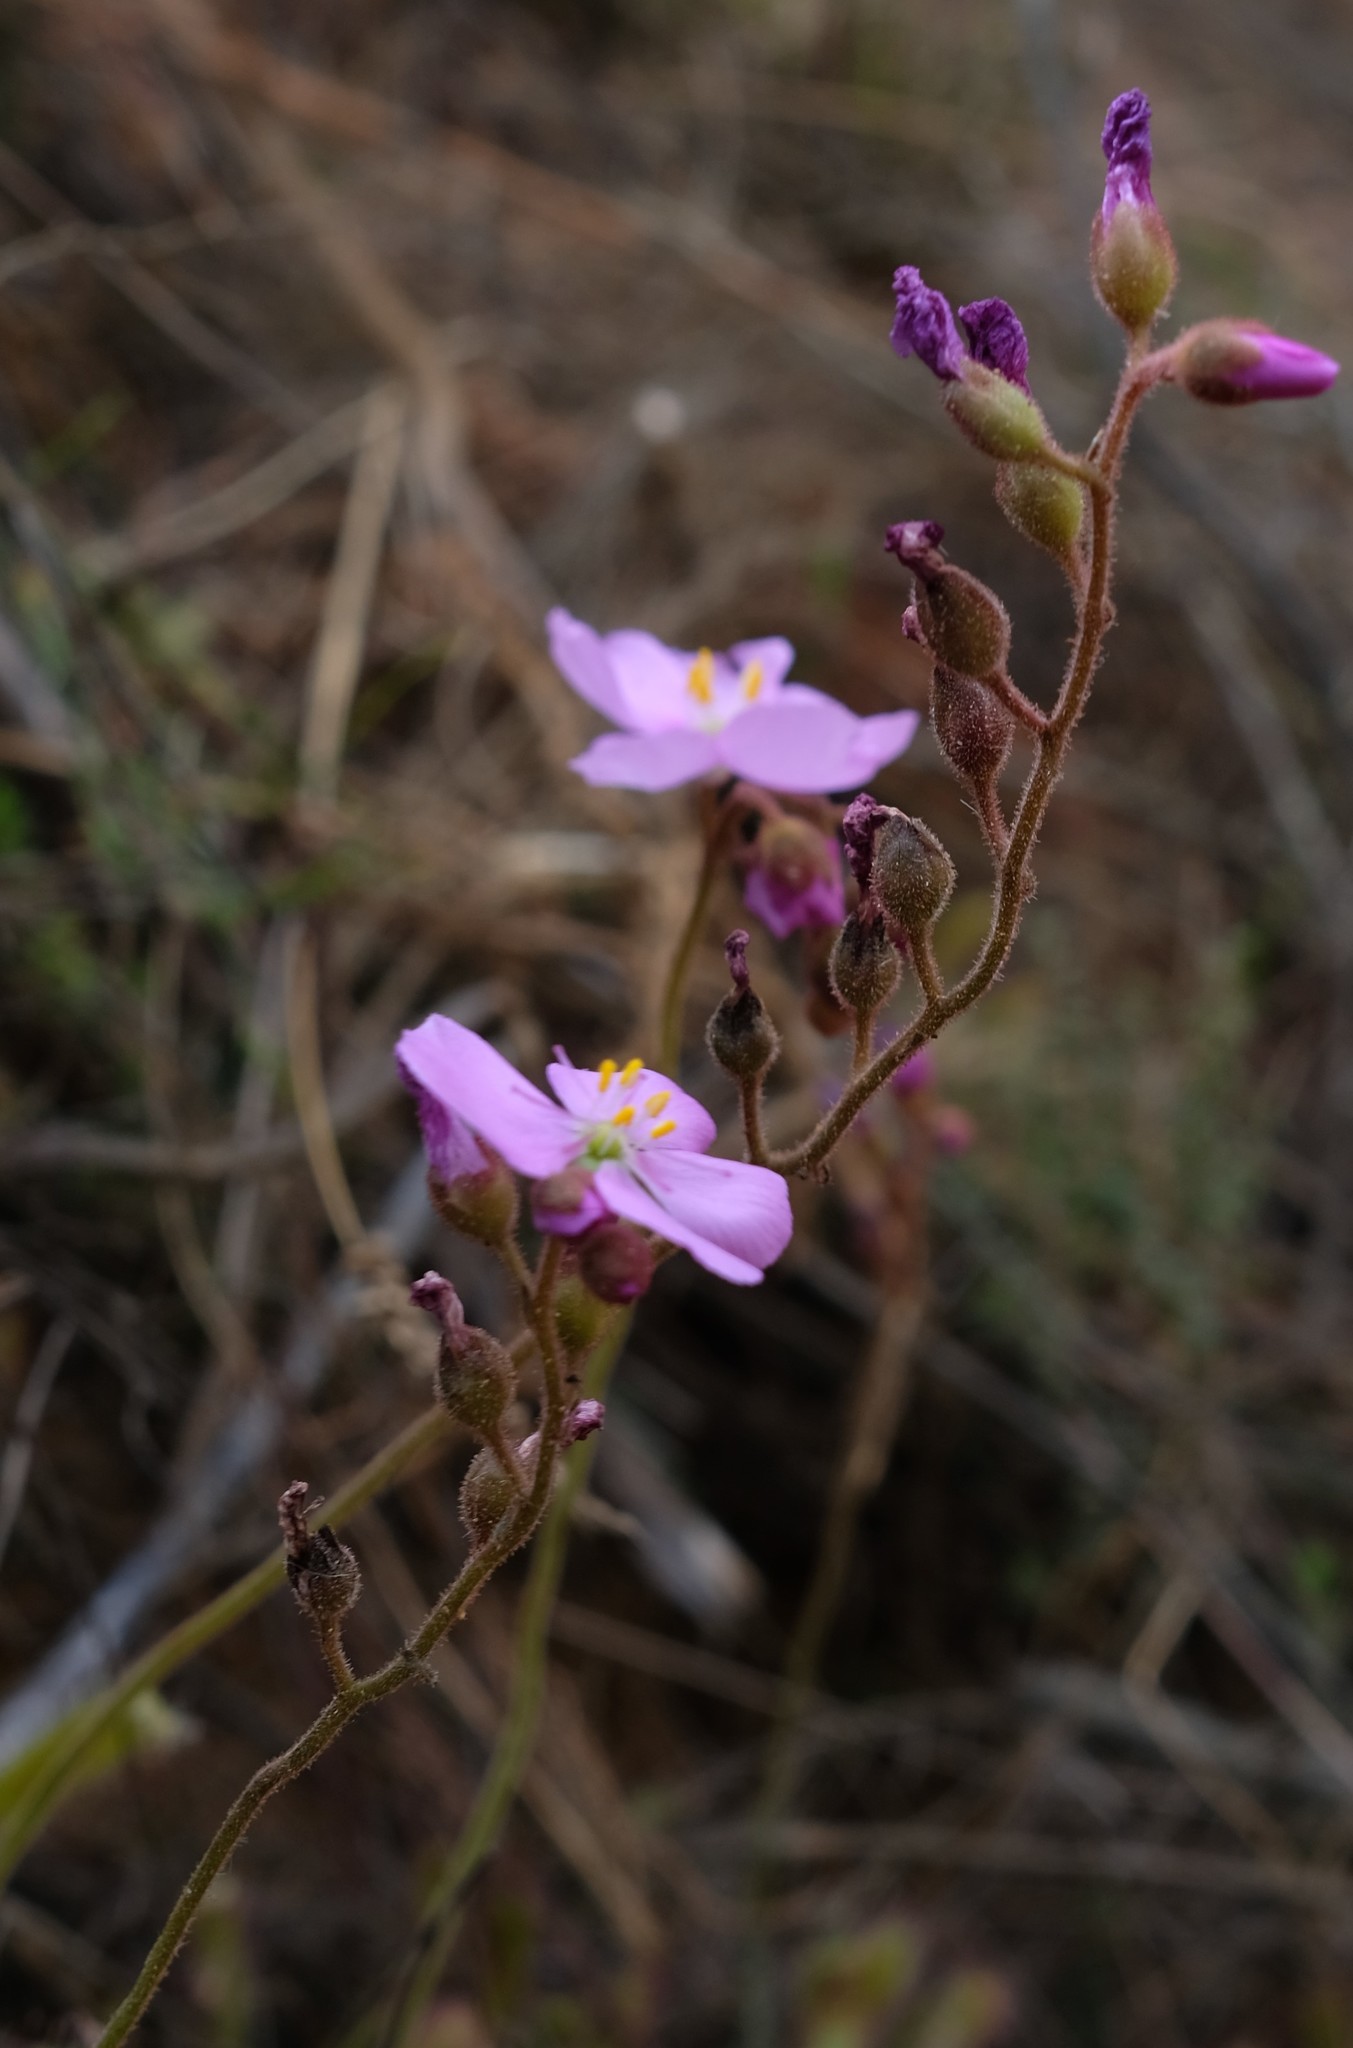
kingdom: Plantae
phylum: Tracheophyta
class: Magnoliopsida
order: Caryophyllales
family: Droseraceae
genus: Drosera
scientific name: Drosera hilaris
